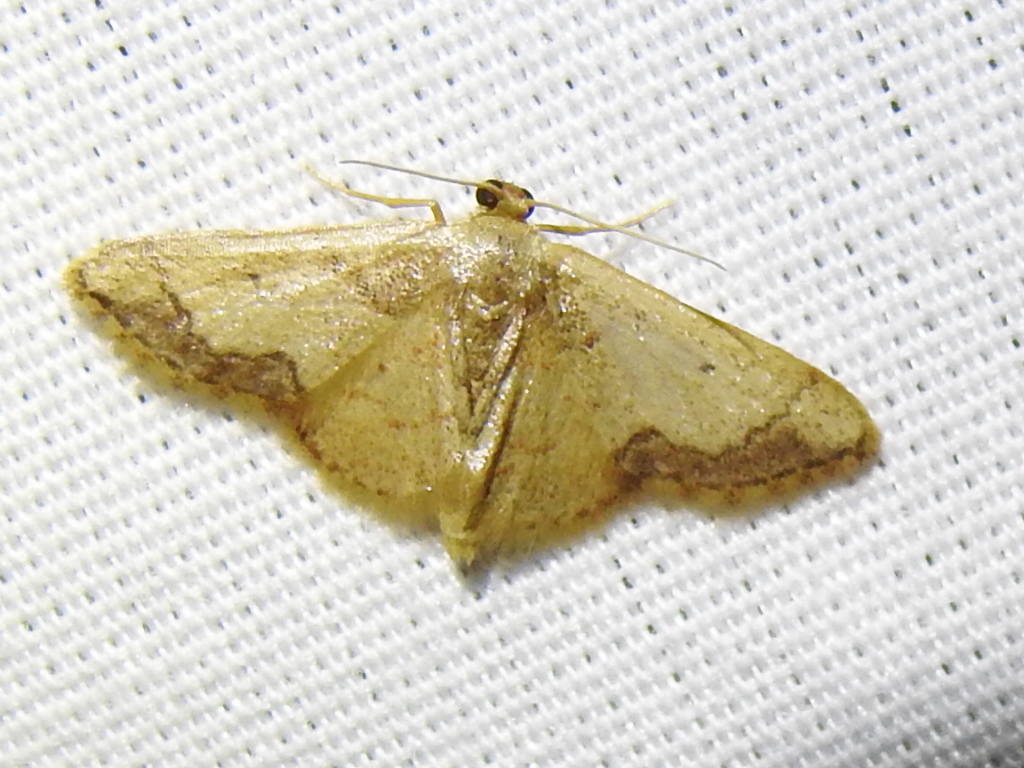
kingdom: Animalia
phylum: Arthropoda
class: Insecta
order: Lepidoptera
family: Geometridae
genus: Idaea
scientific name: Idaea kendallaria
